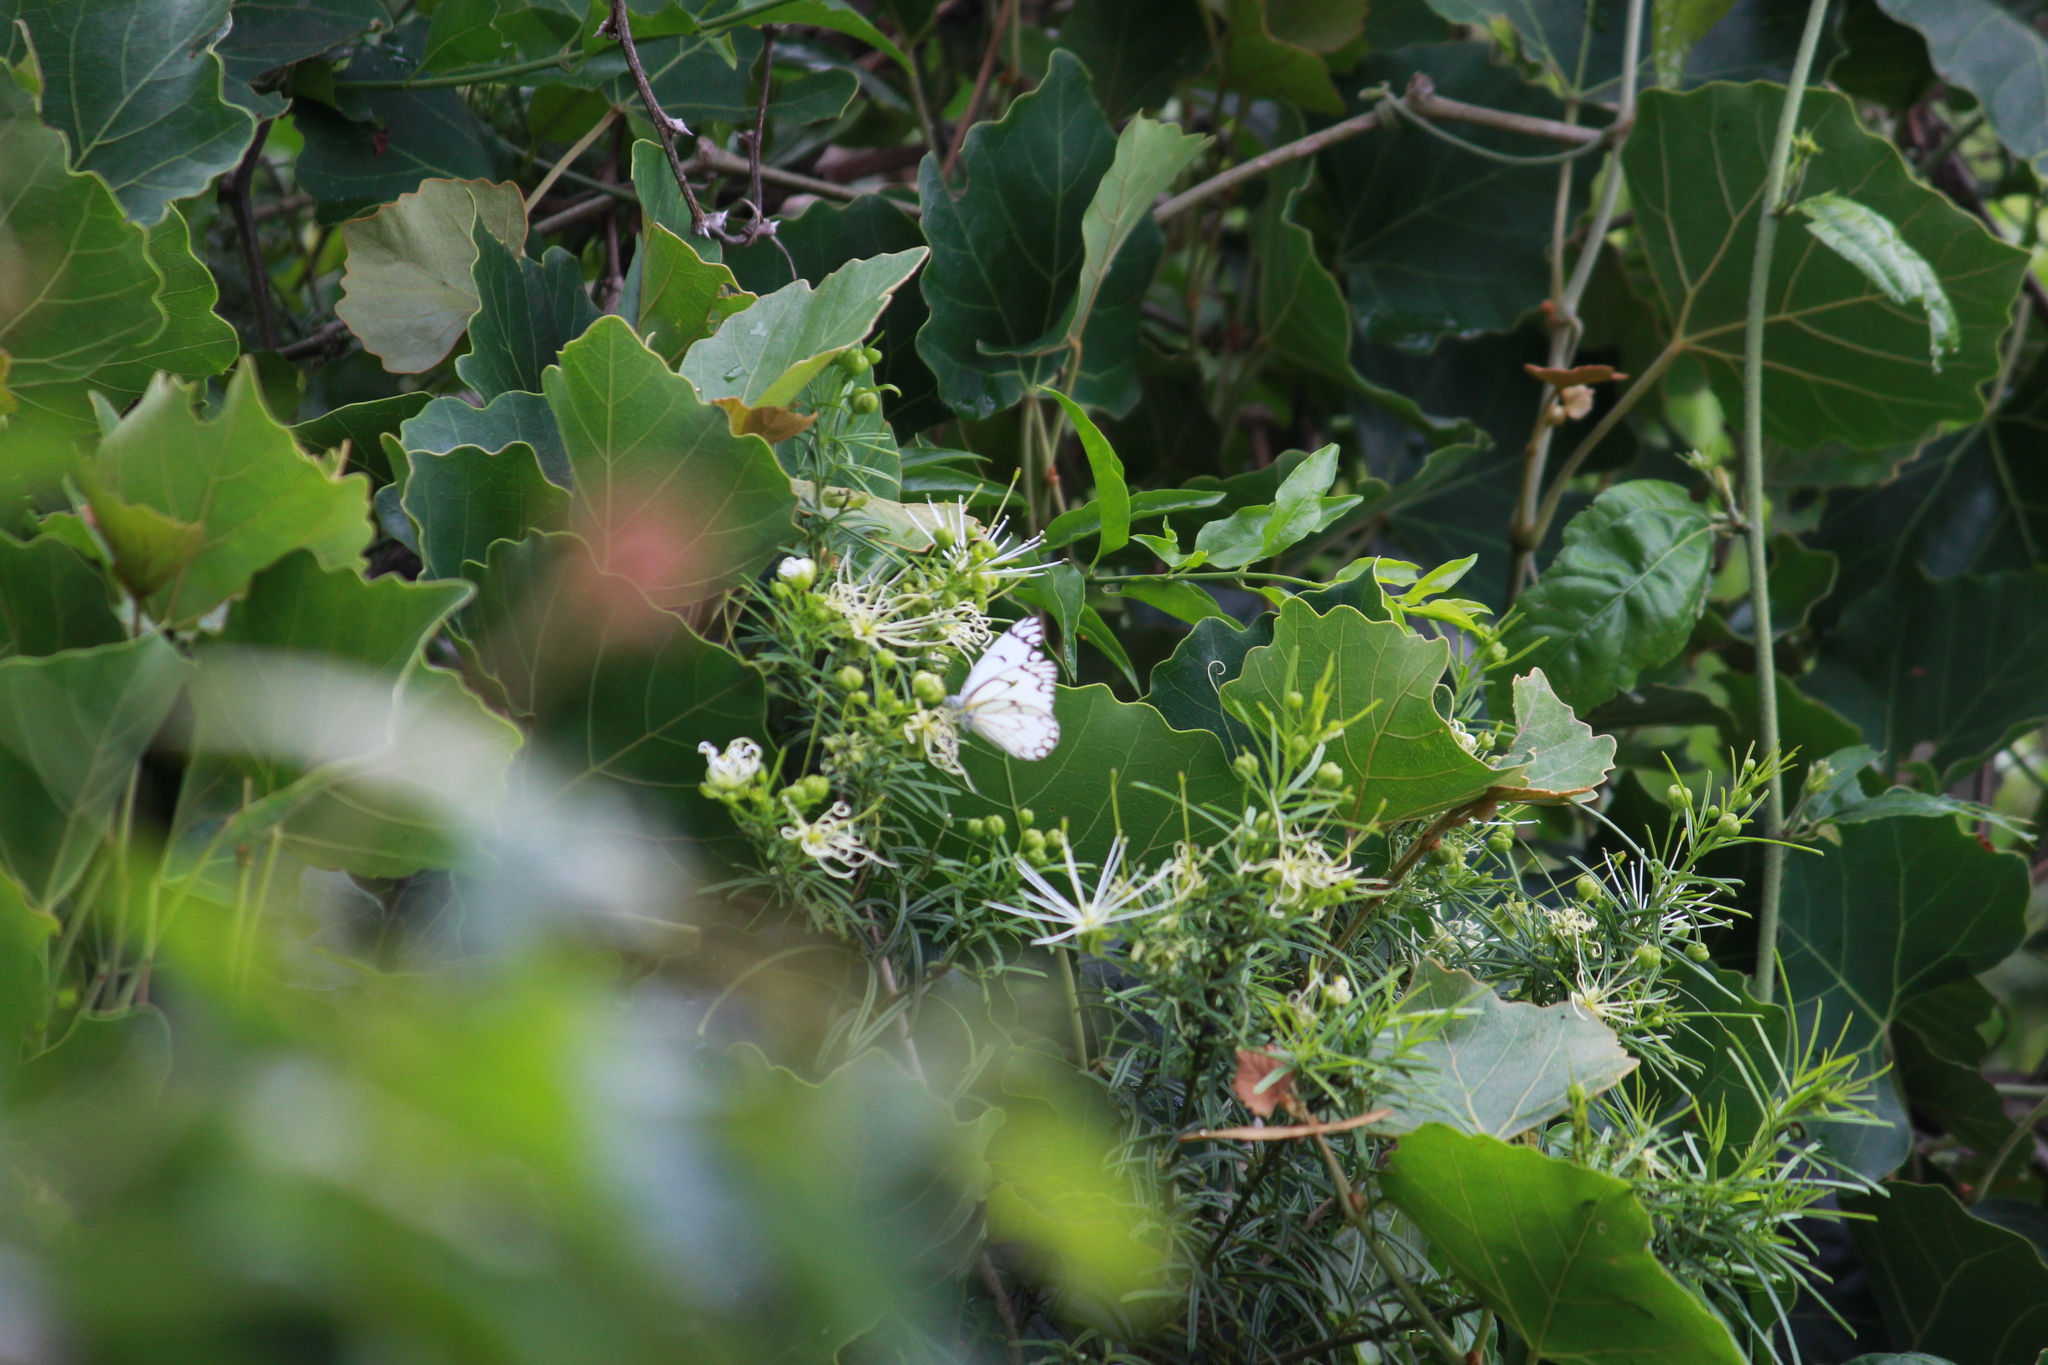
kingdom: Animalia
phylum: Arthropoda
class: Insecta
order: Lepidoptera
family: Pieridae
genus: Belenois
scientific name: Belenois aurota
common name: Brown-veined white
